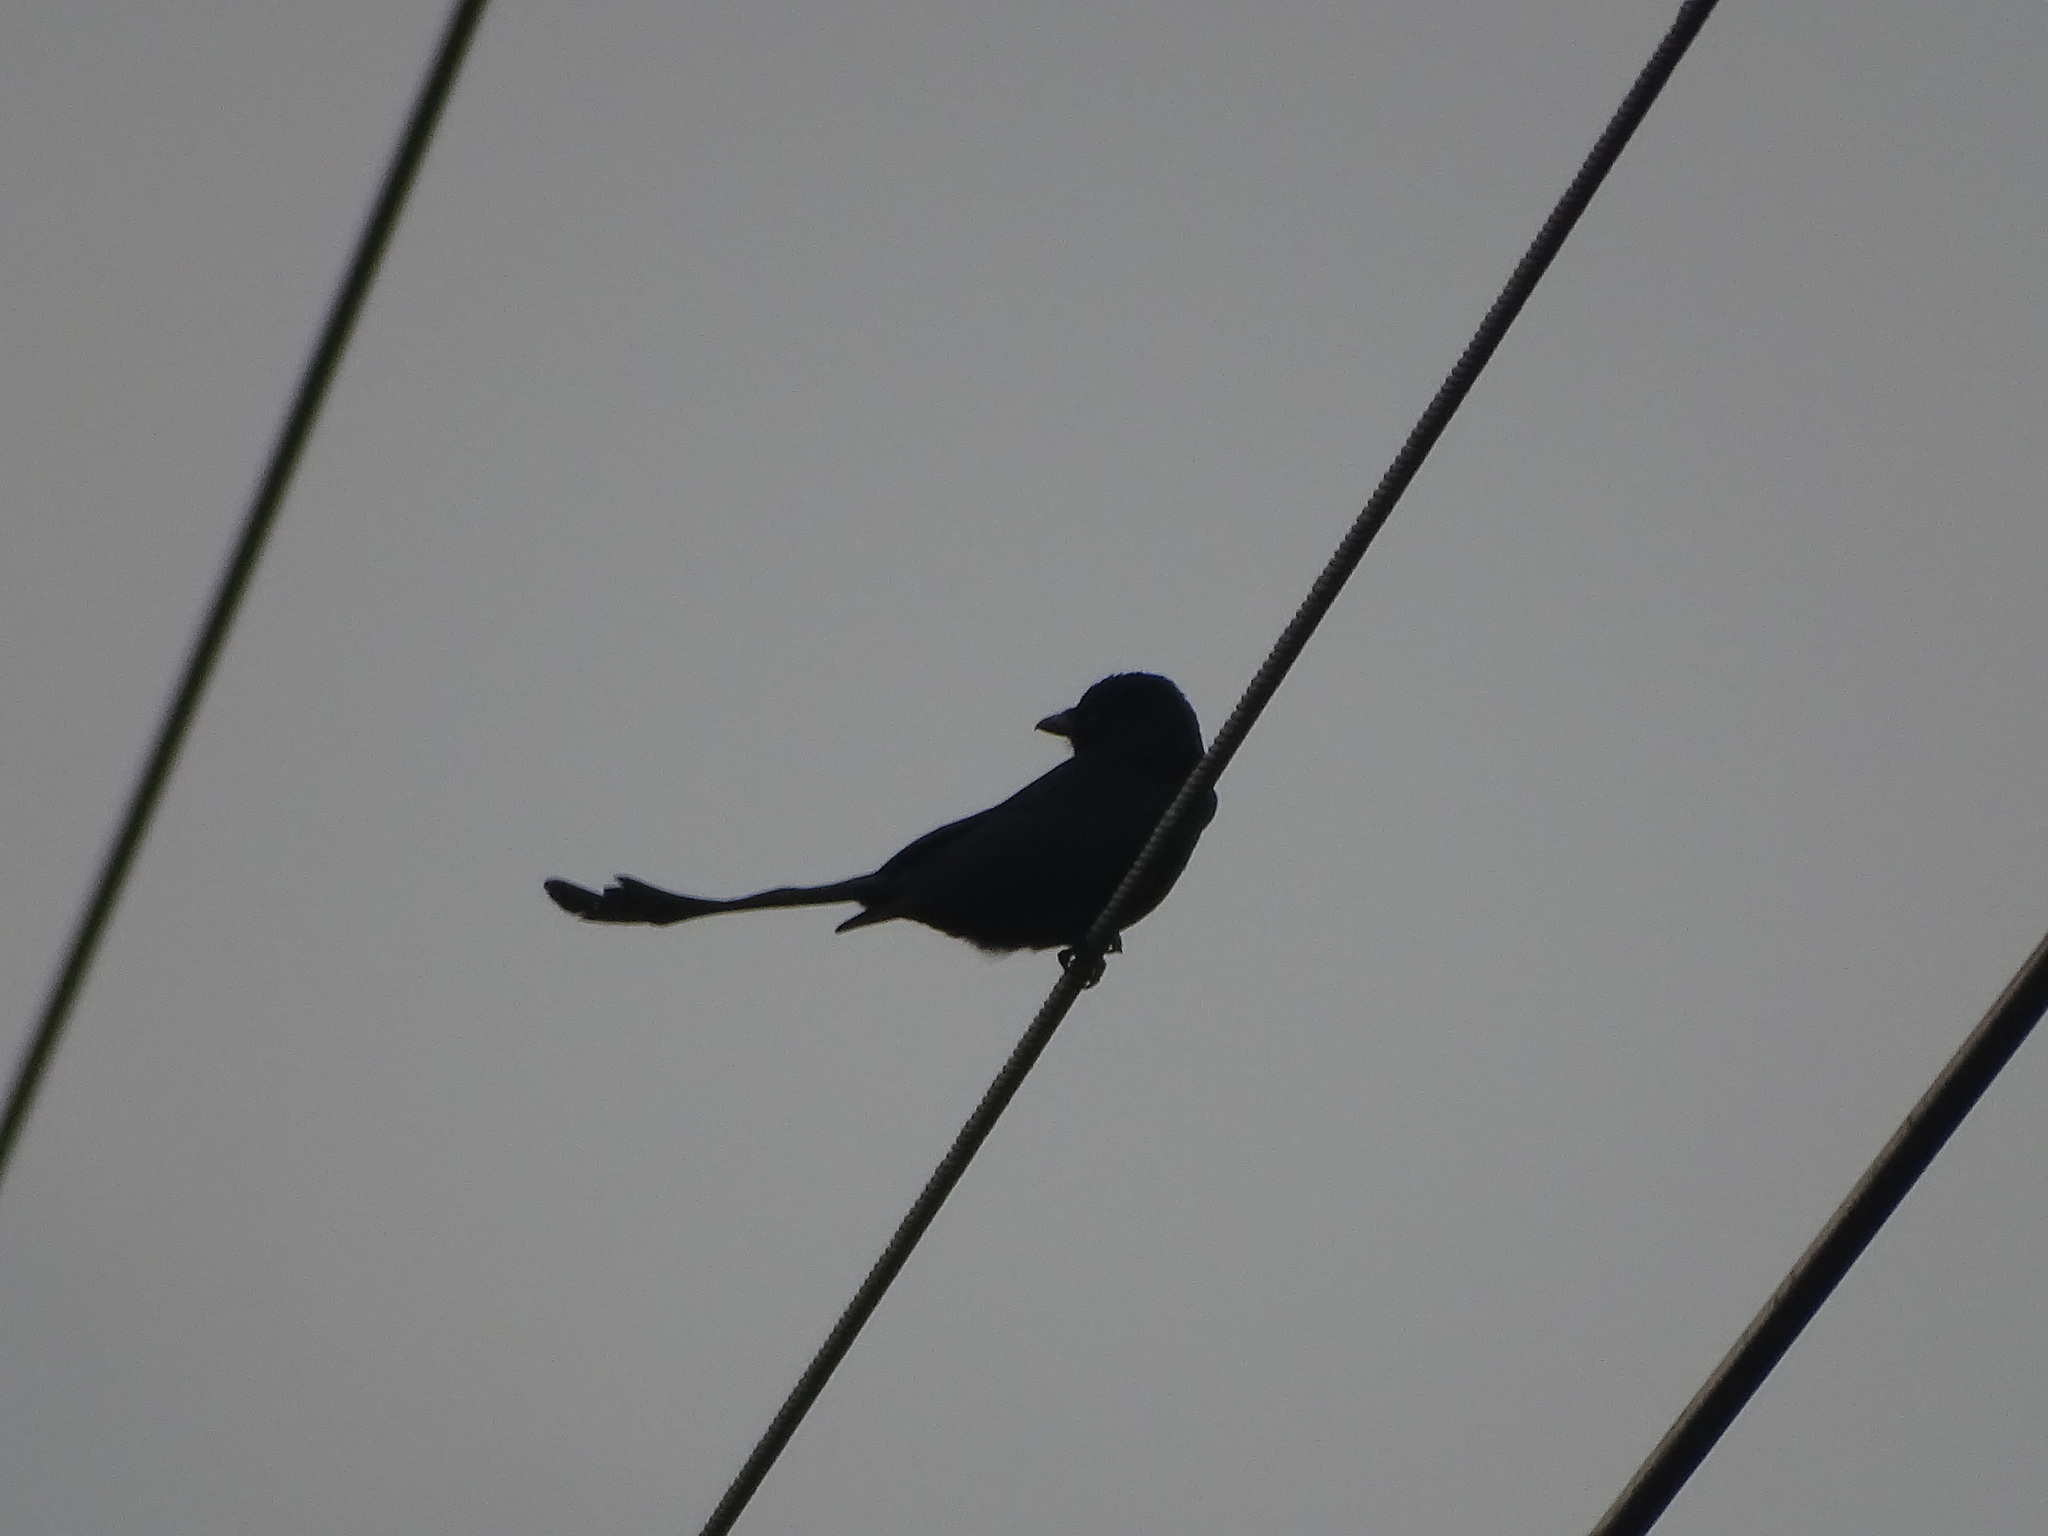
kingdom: Animalia
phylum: Chordata
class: Aves
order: Passeriformes
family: Dicruridae
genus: Dicrurus
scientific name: Dicrurus macrocercus
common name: Black drongo
